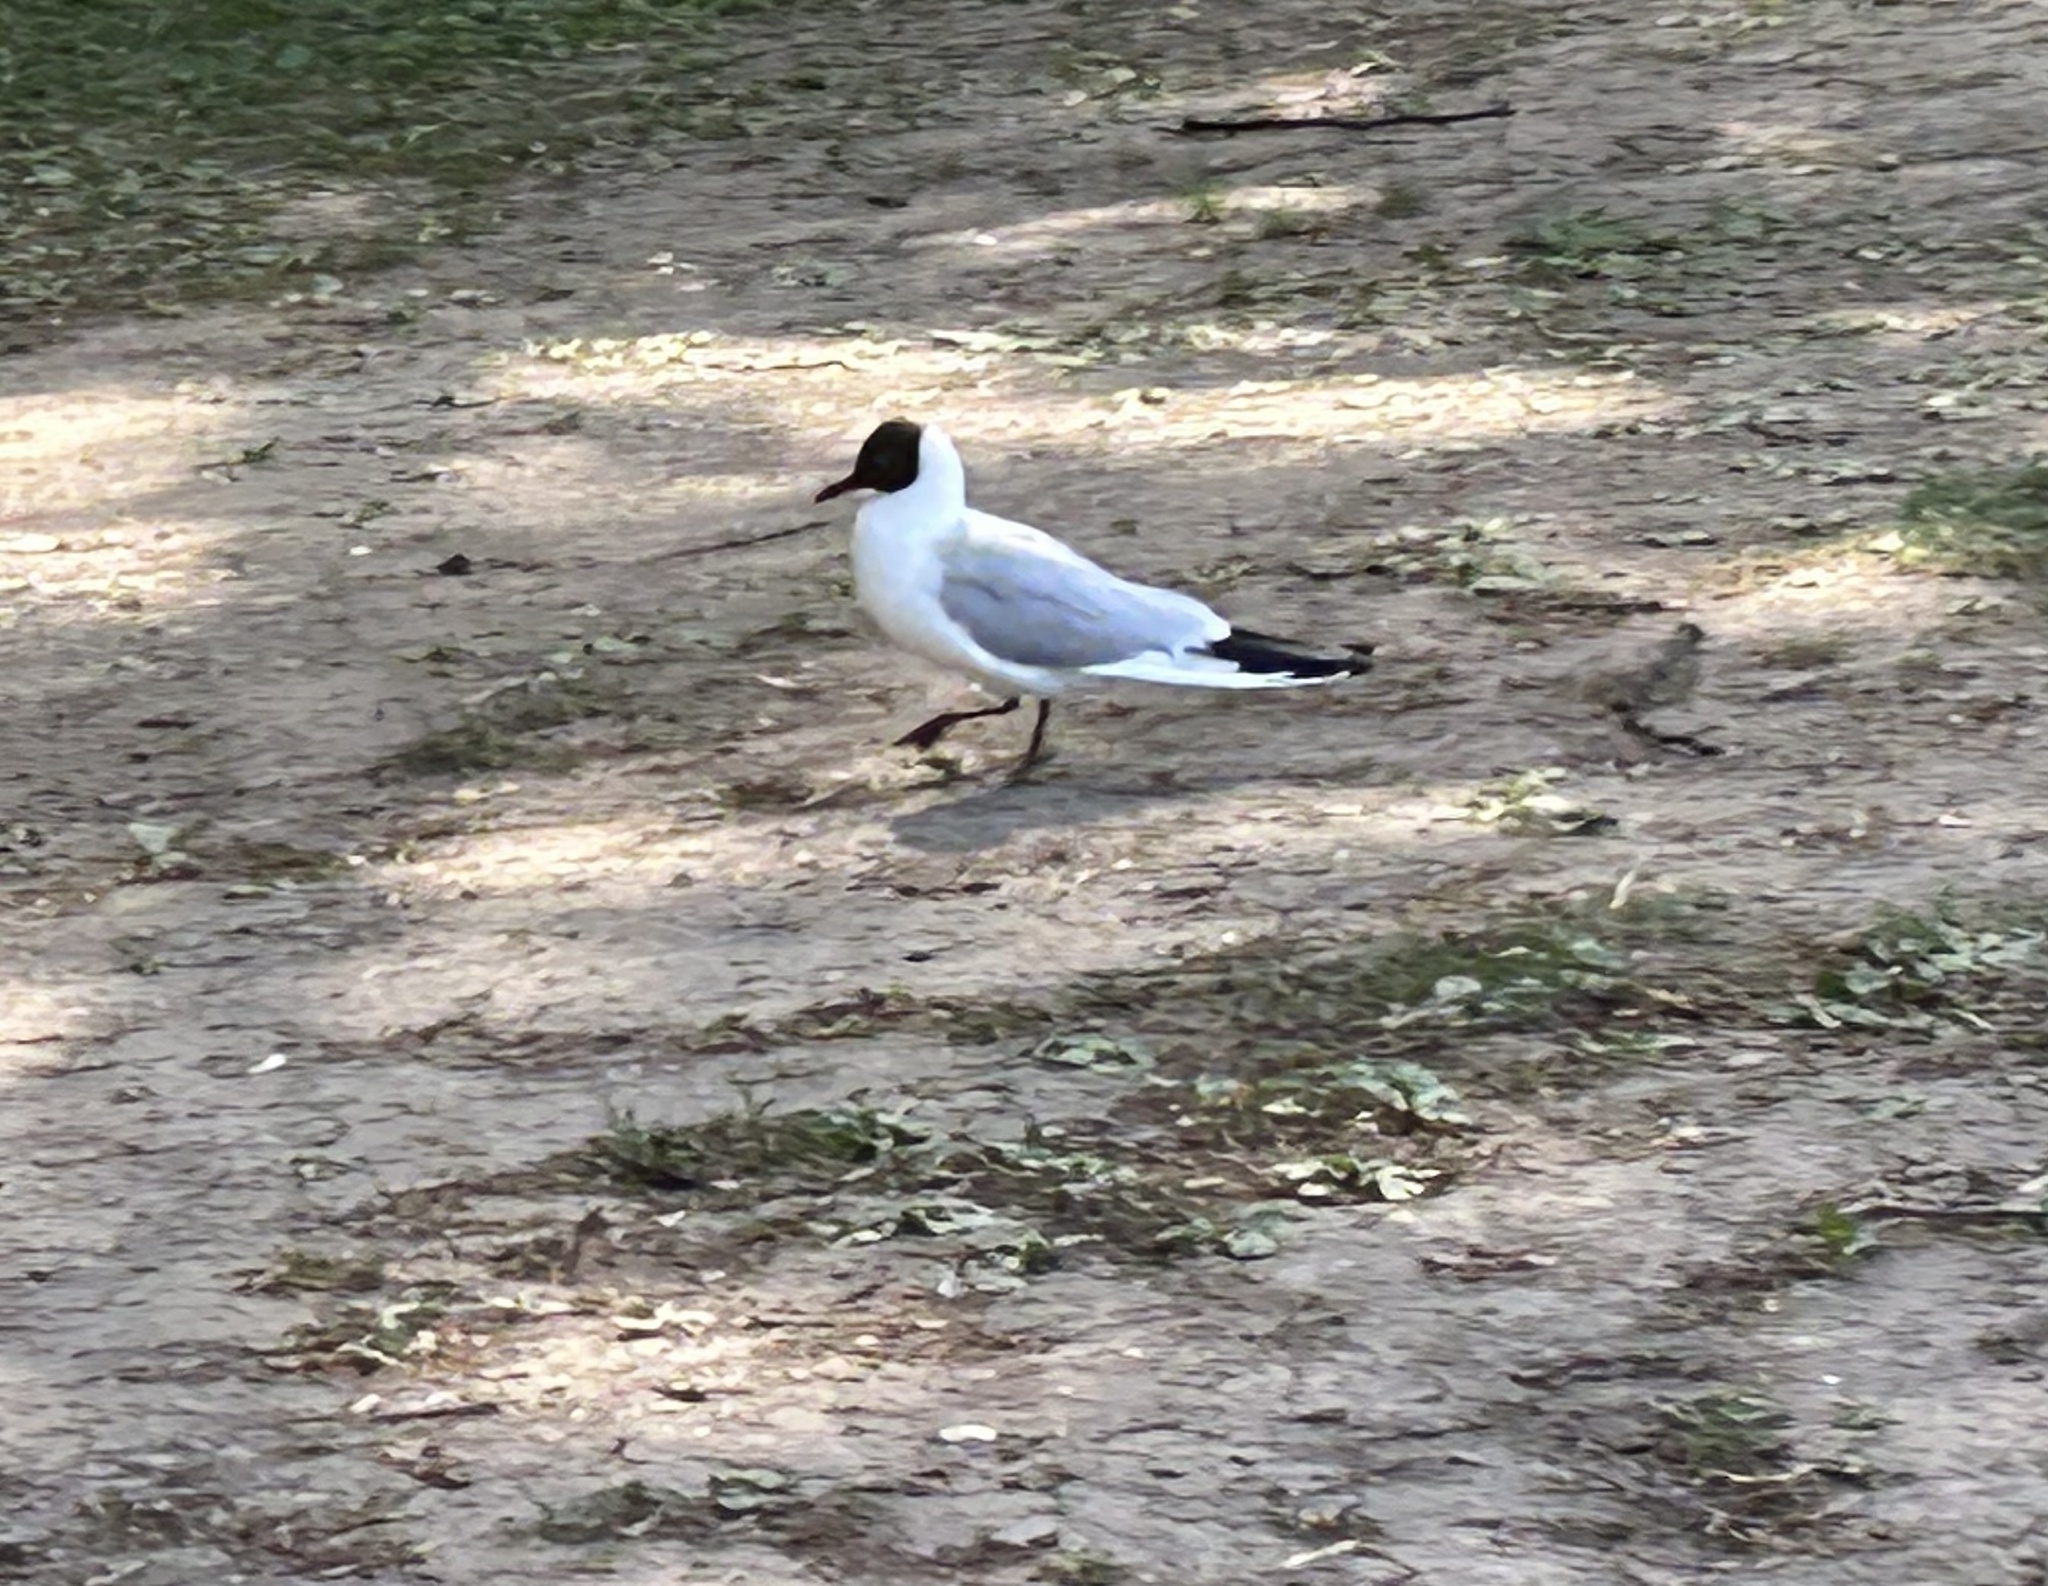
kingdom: Animalia
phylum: Chordata
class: Aves
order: Charadriiformes
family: Laridae
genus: Chroicocephalus
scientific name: Chroicocephalus ridibundus
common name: Black-headed gull
